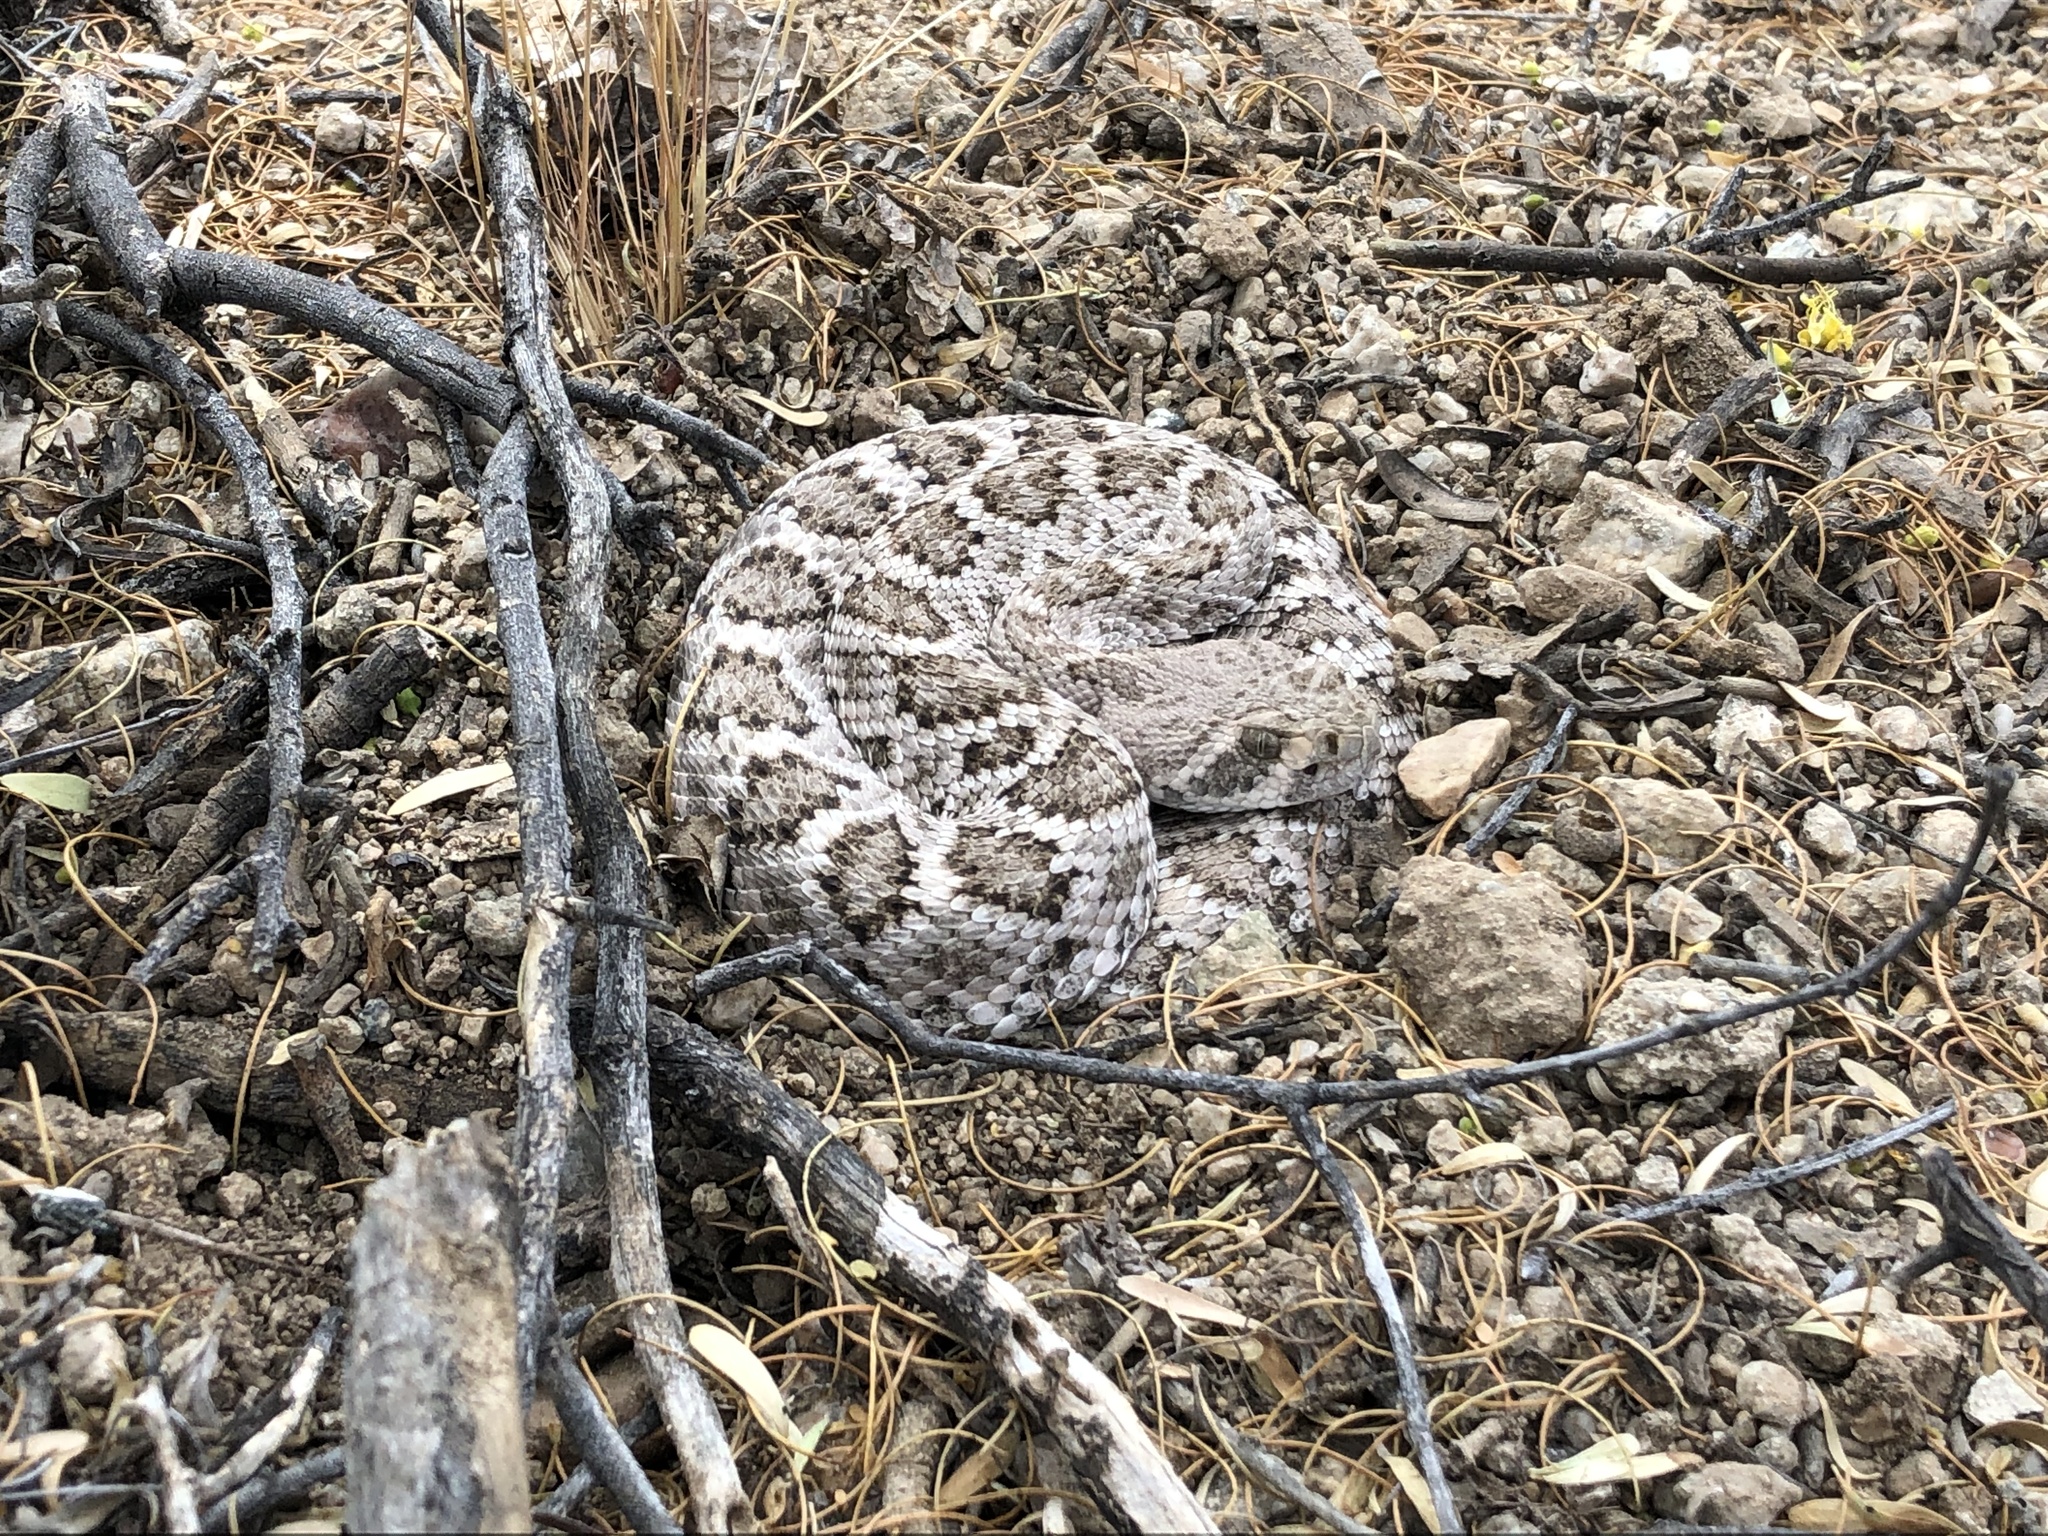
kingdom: Animalia
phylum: Chordata
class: Squamata
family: Viperidae
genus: Crotalus
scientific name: Crotalus atrox
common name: Western diamond-backed rattlesnake
